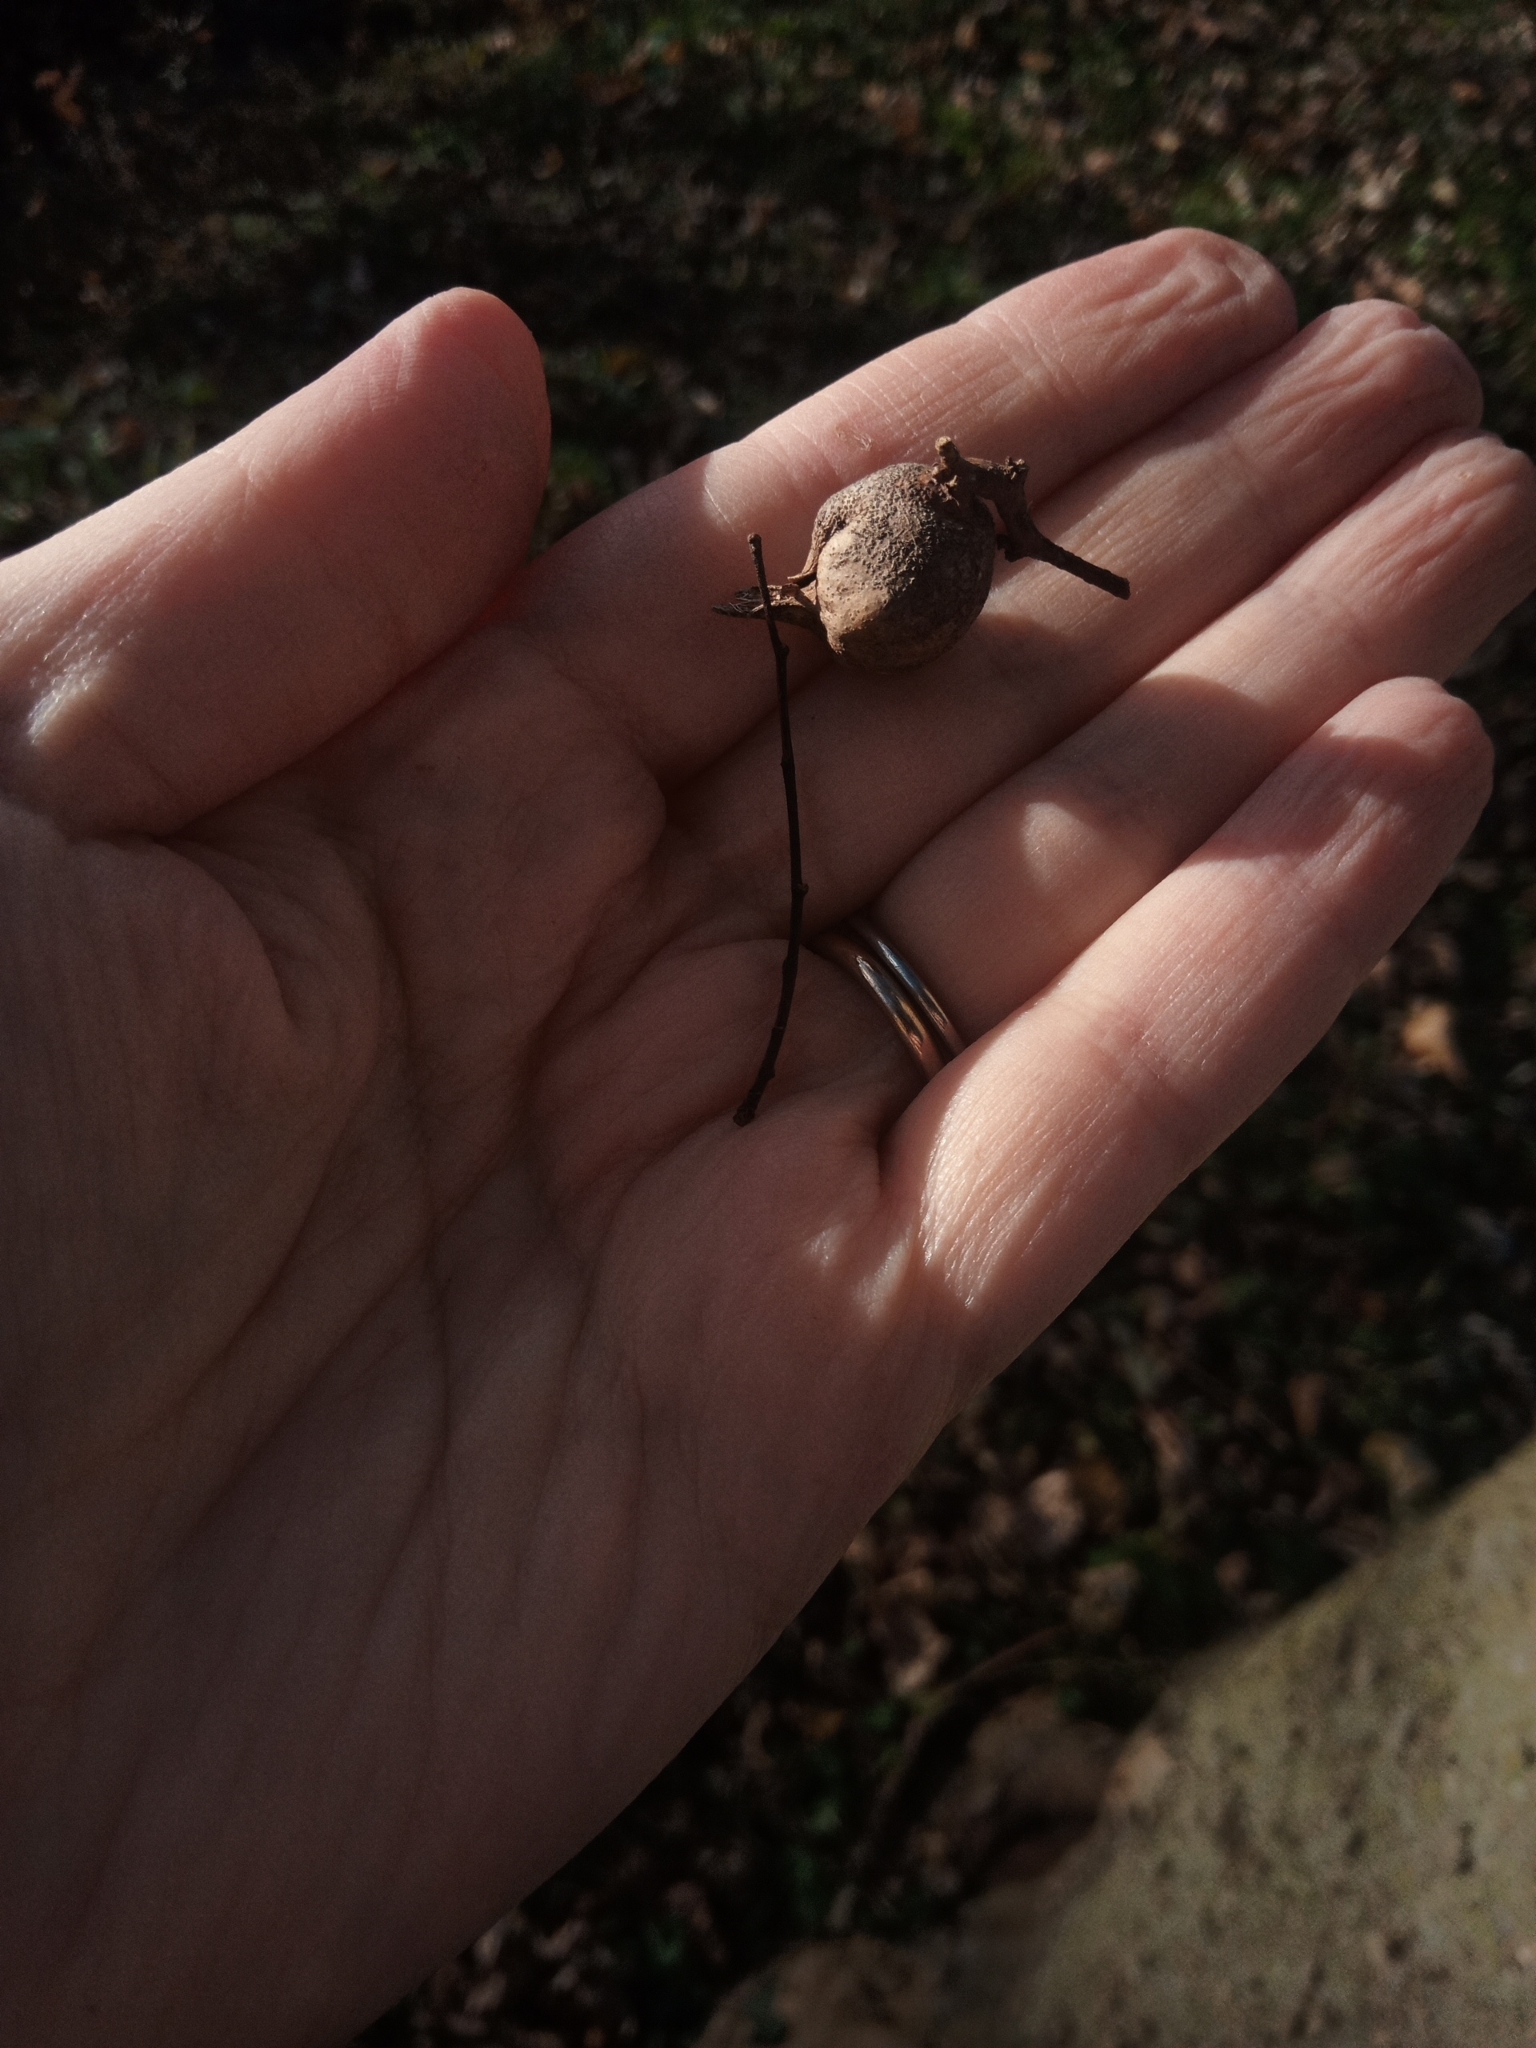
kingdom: Animalia
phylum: Arthropoda
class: Insecta
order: Hemiptera
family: Aphalaridae
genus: Pachypsylla
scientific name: Pachypsylla venusta
